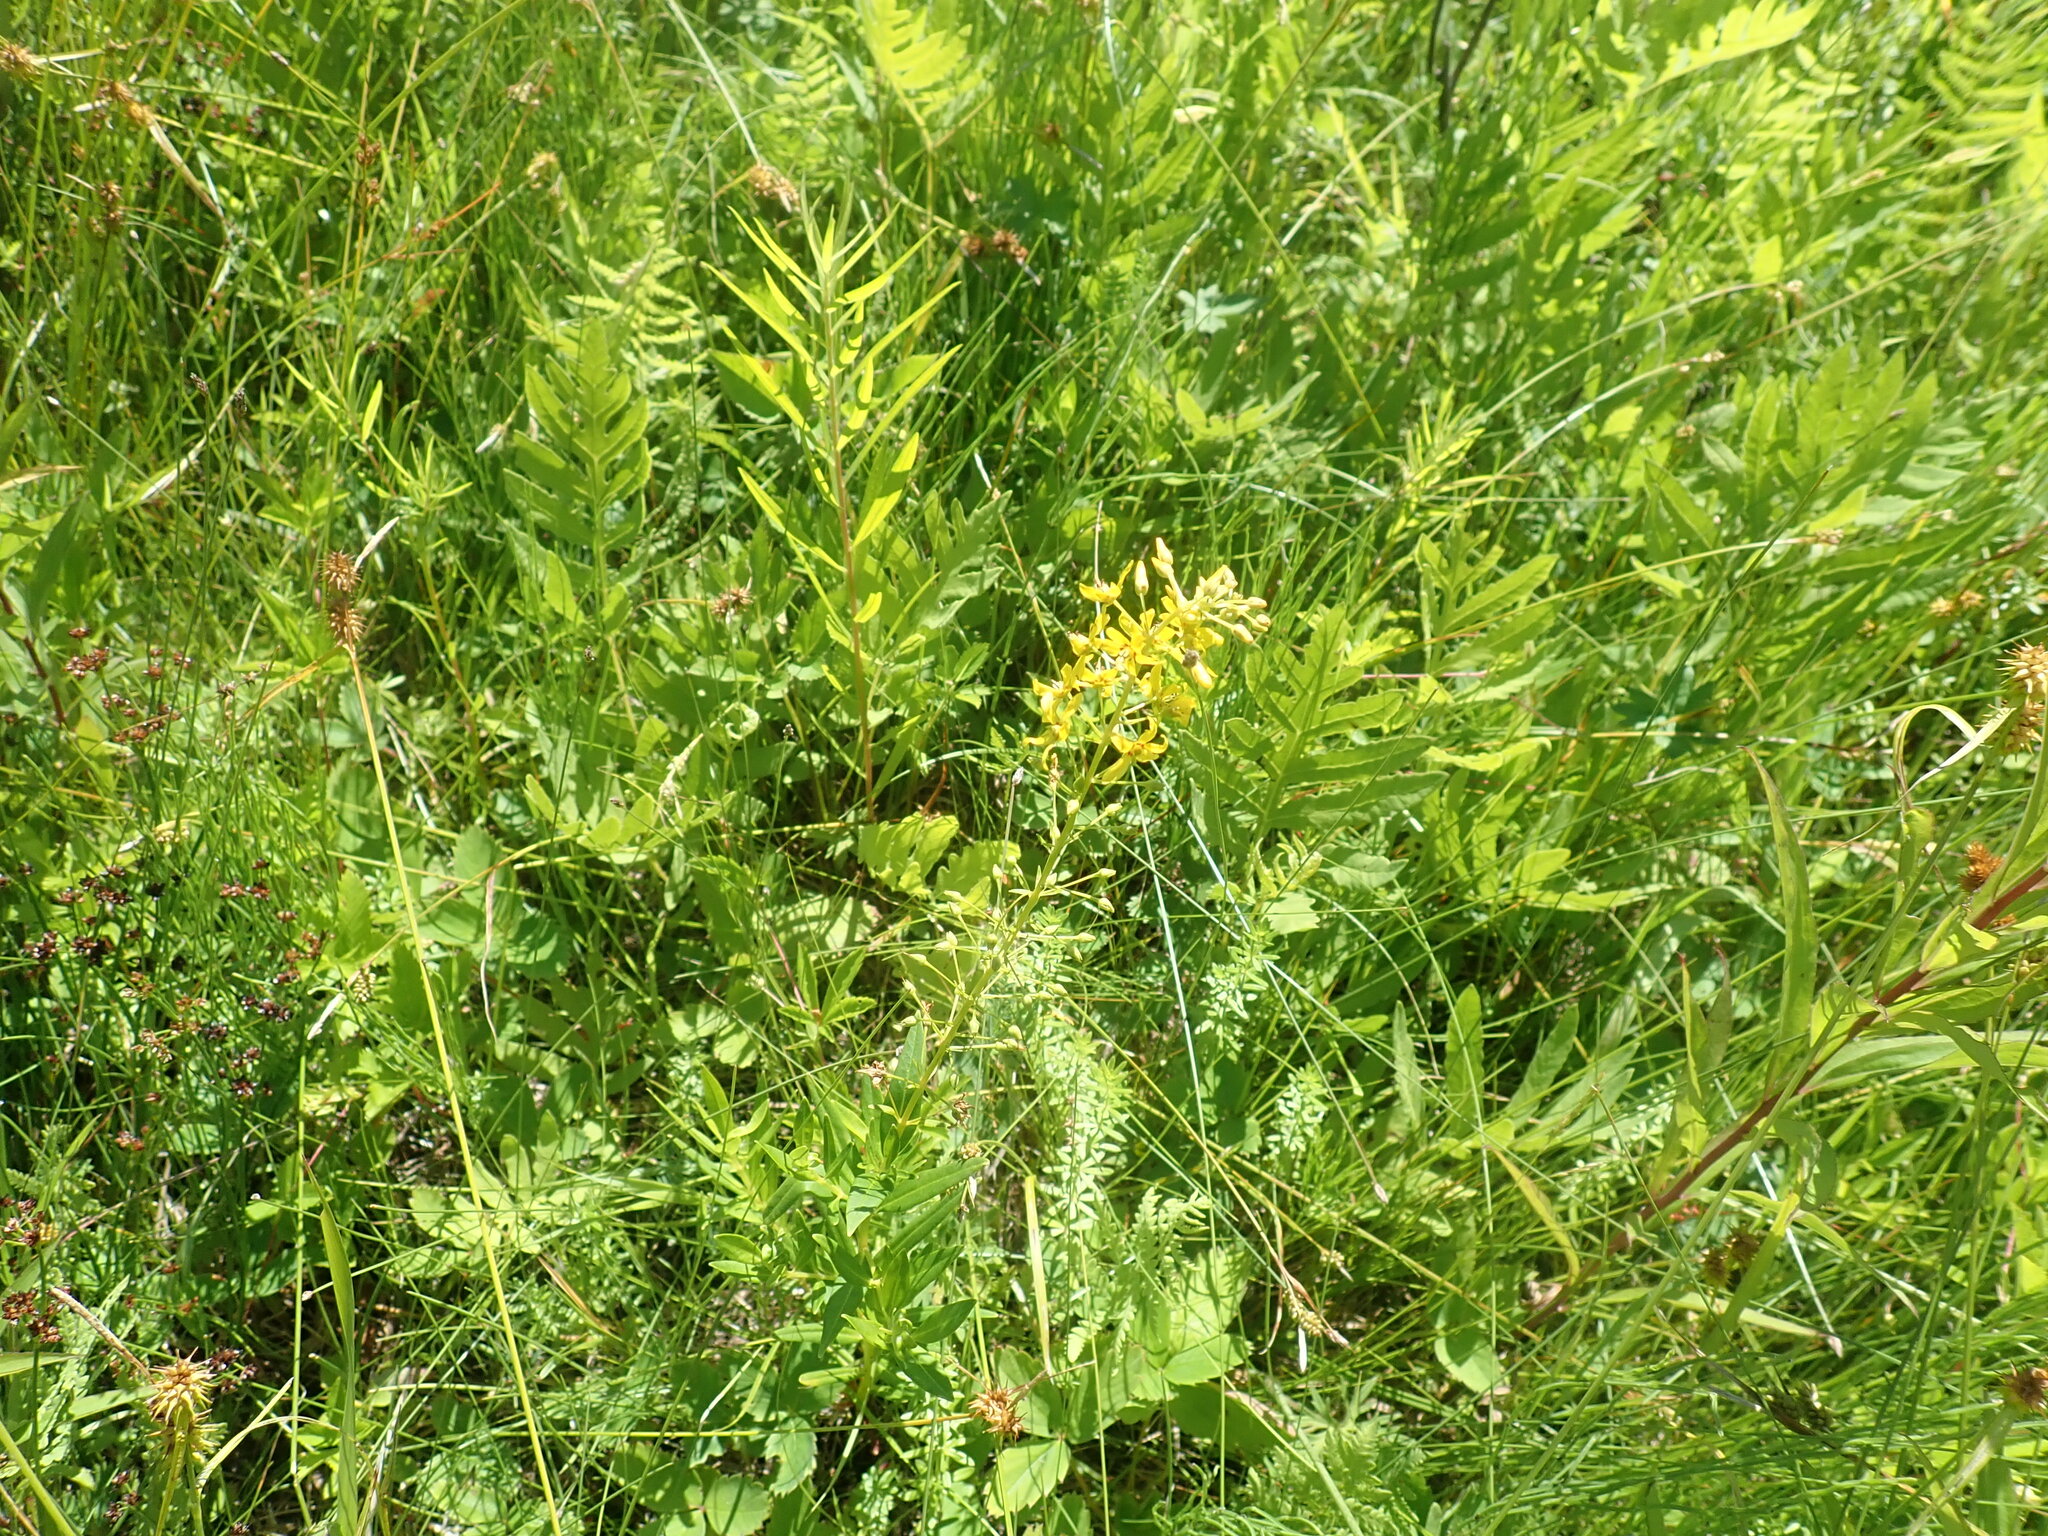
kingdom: Plantae
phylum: Tracheophyta
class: Magnoliopsida
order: Ericales
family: Primulaceae
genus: Lysimachia
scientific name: Lysimachia terrestris
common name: Lake loosestrife
